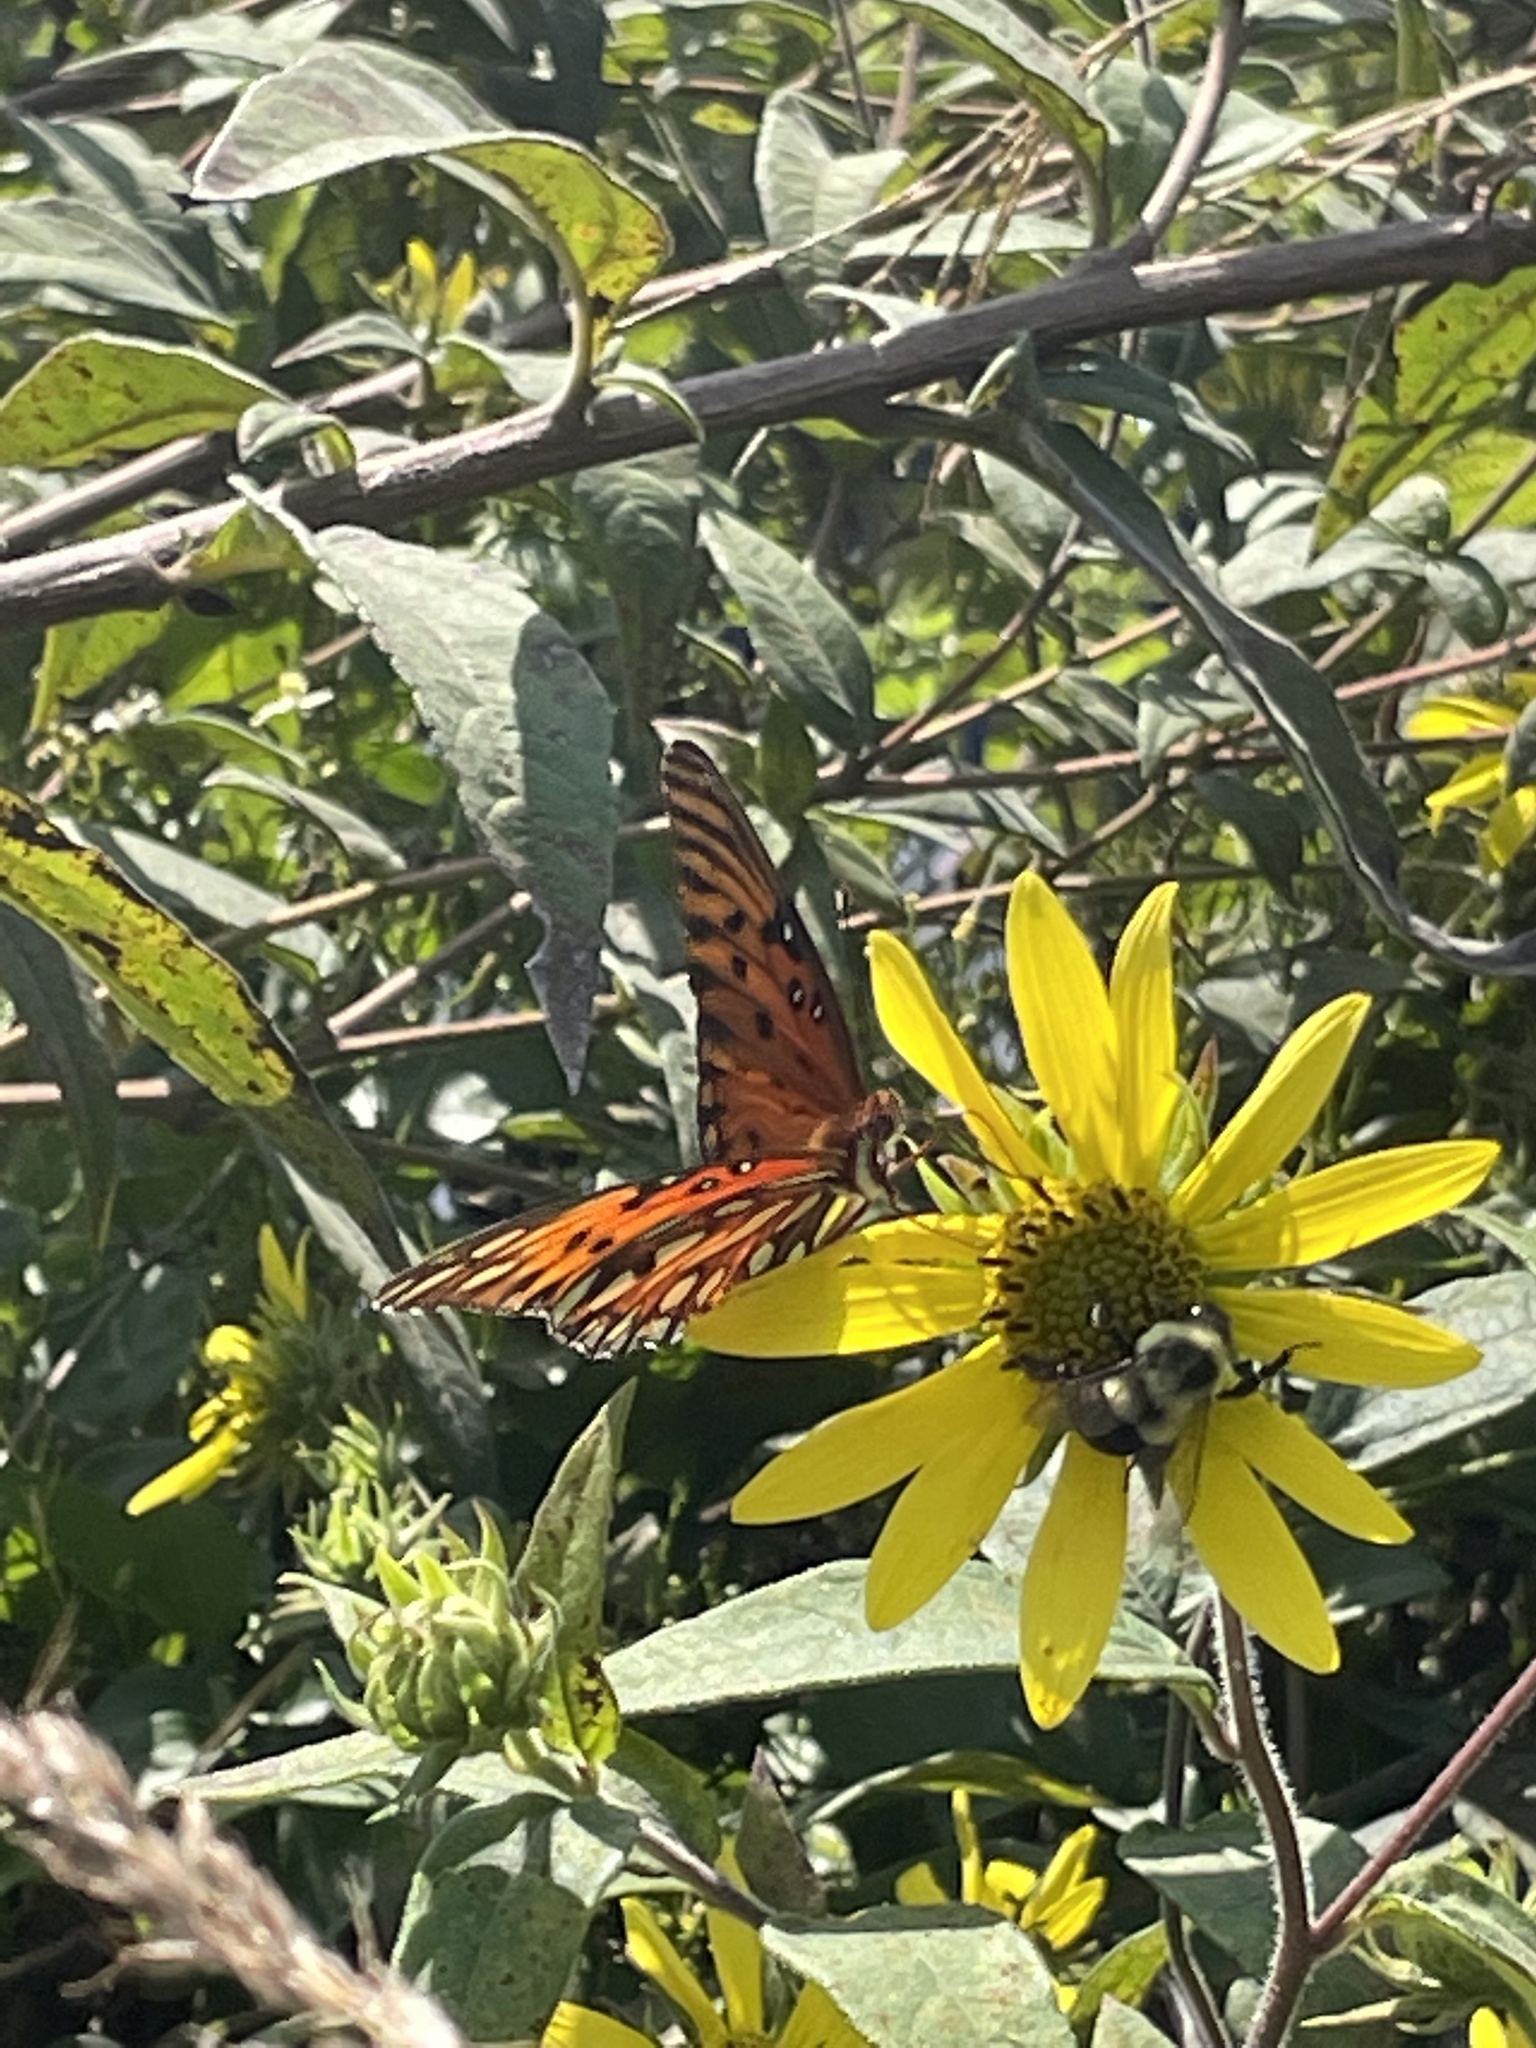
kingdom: Animalia
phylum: Arthropoda
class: Insecta
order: Lepidoptera
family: Nymphalidae
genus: Dione
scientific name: Dione vanillae
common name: Gulf fritillary
